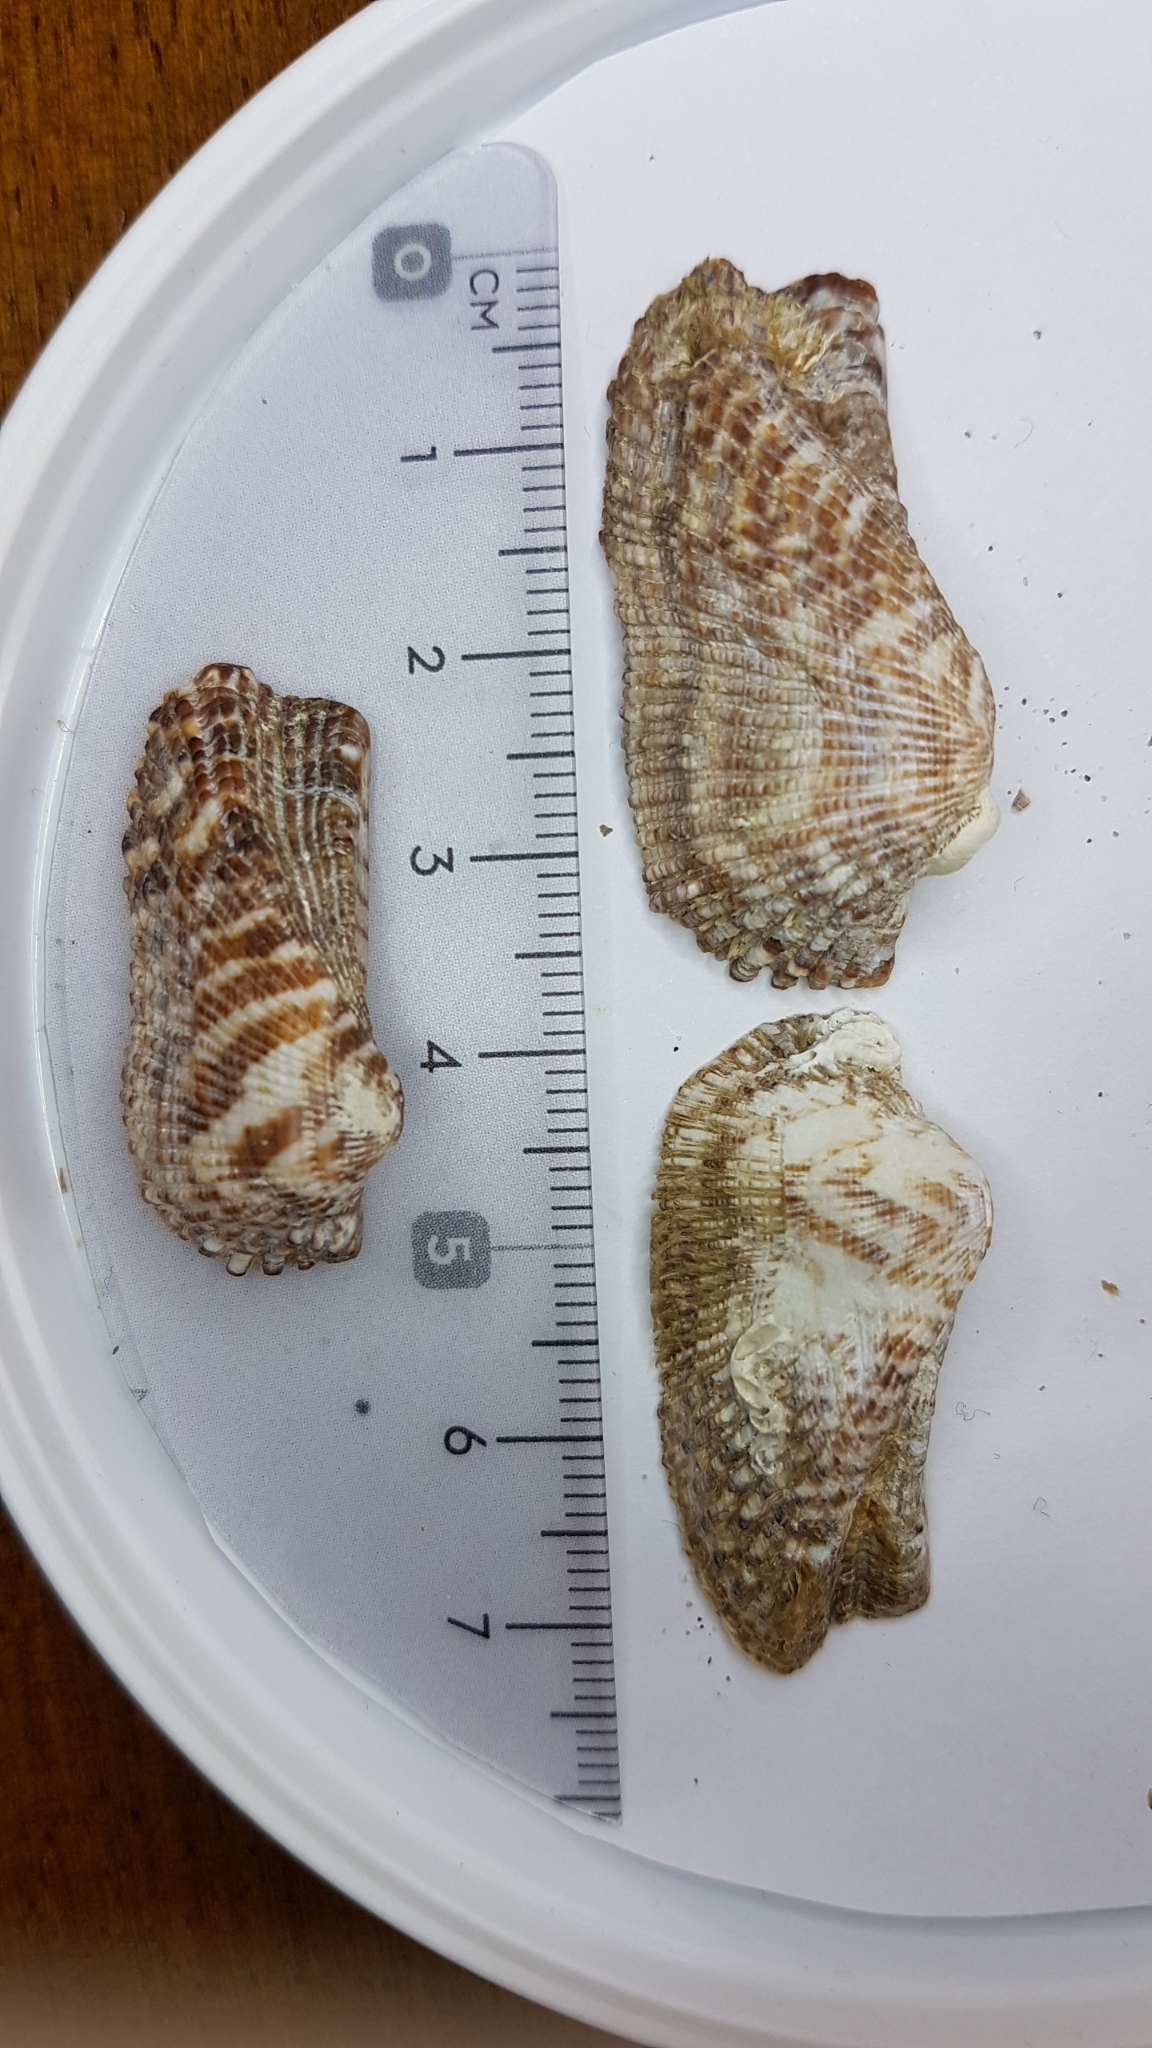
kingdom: Animalia
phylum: Mollusca
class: Bivalvia
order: Arcida
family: Arcidae
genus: Arca
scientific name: Arca noae
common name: Noah's arch
